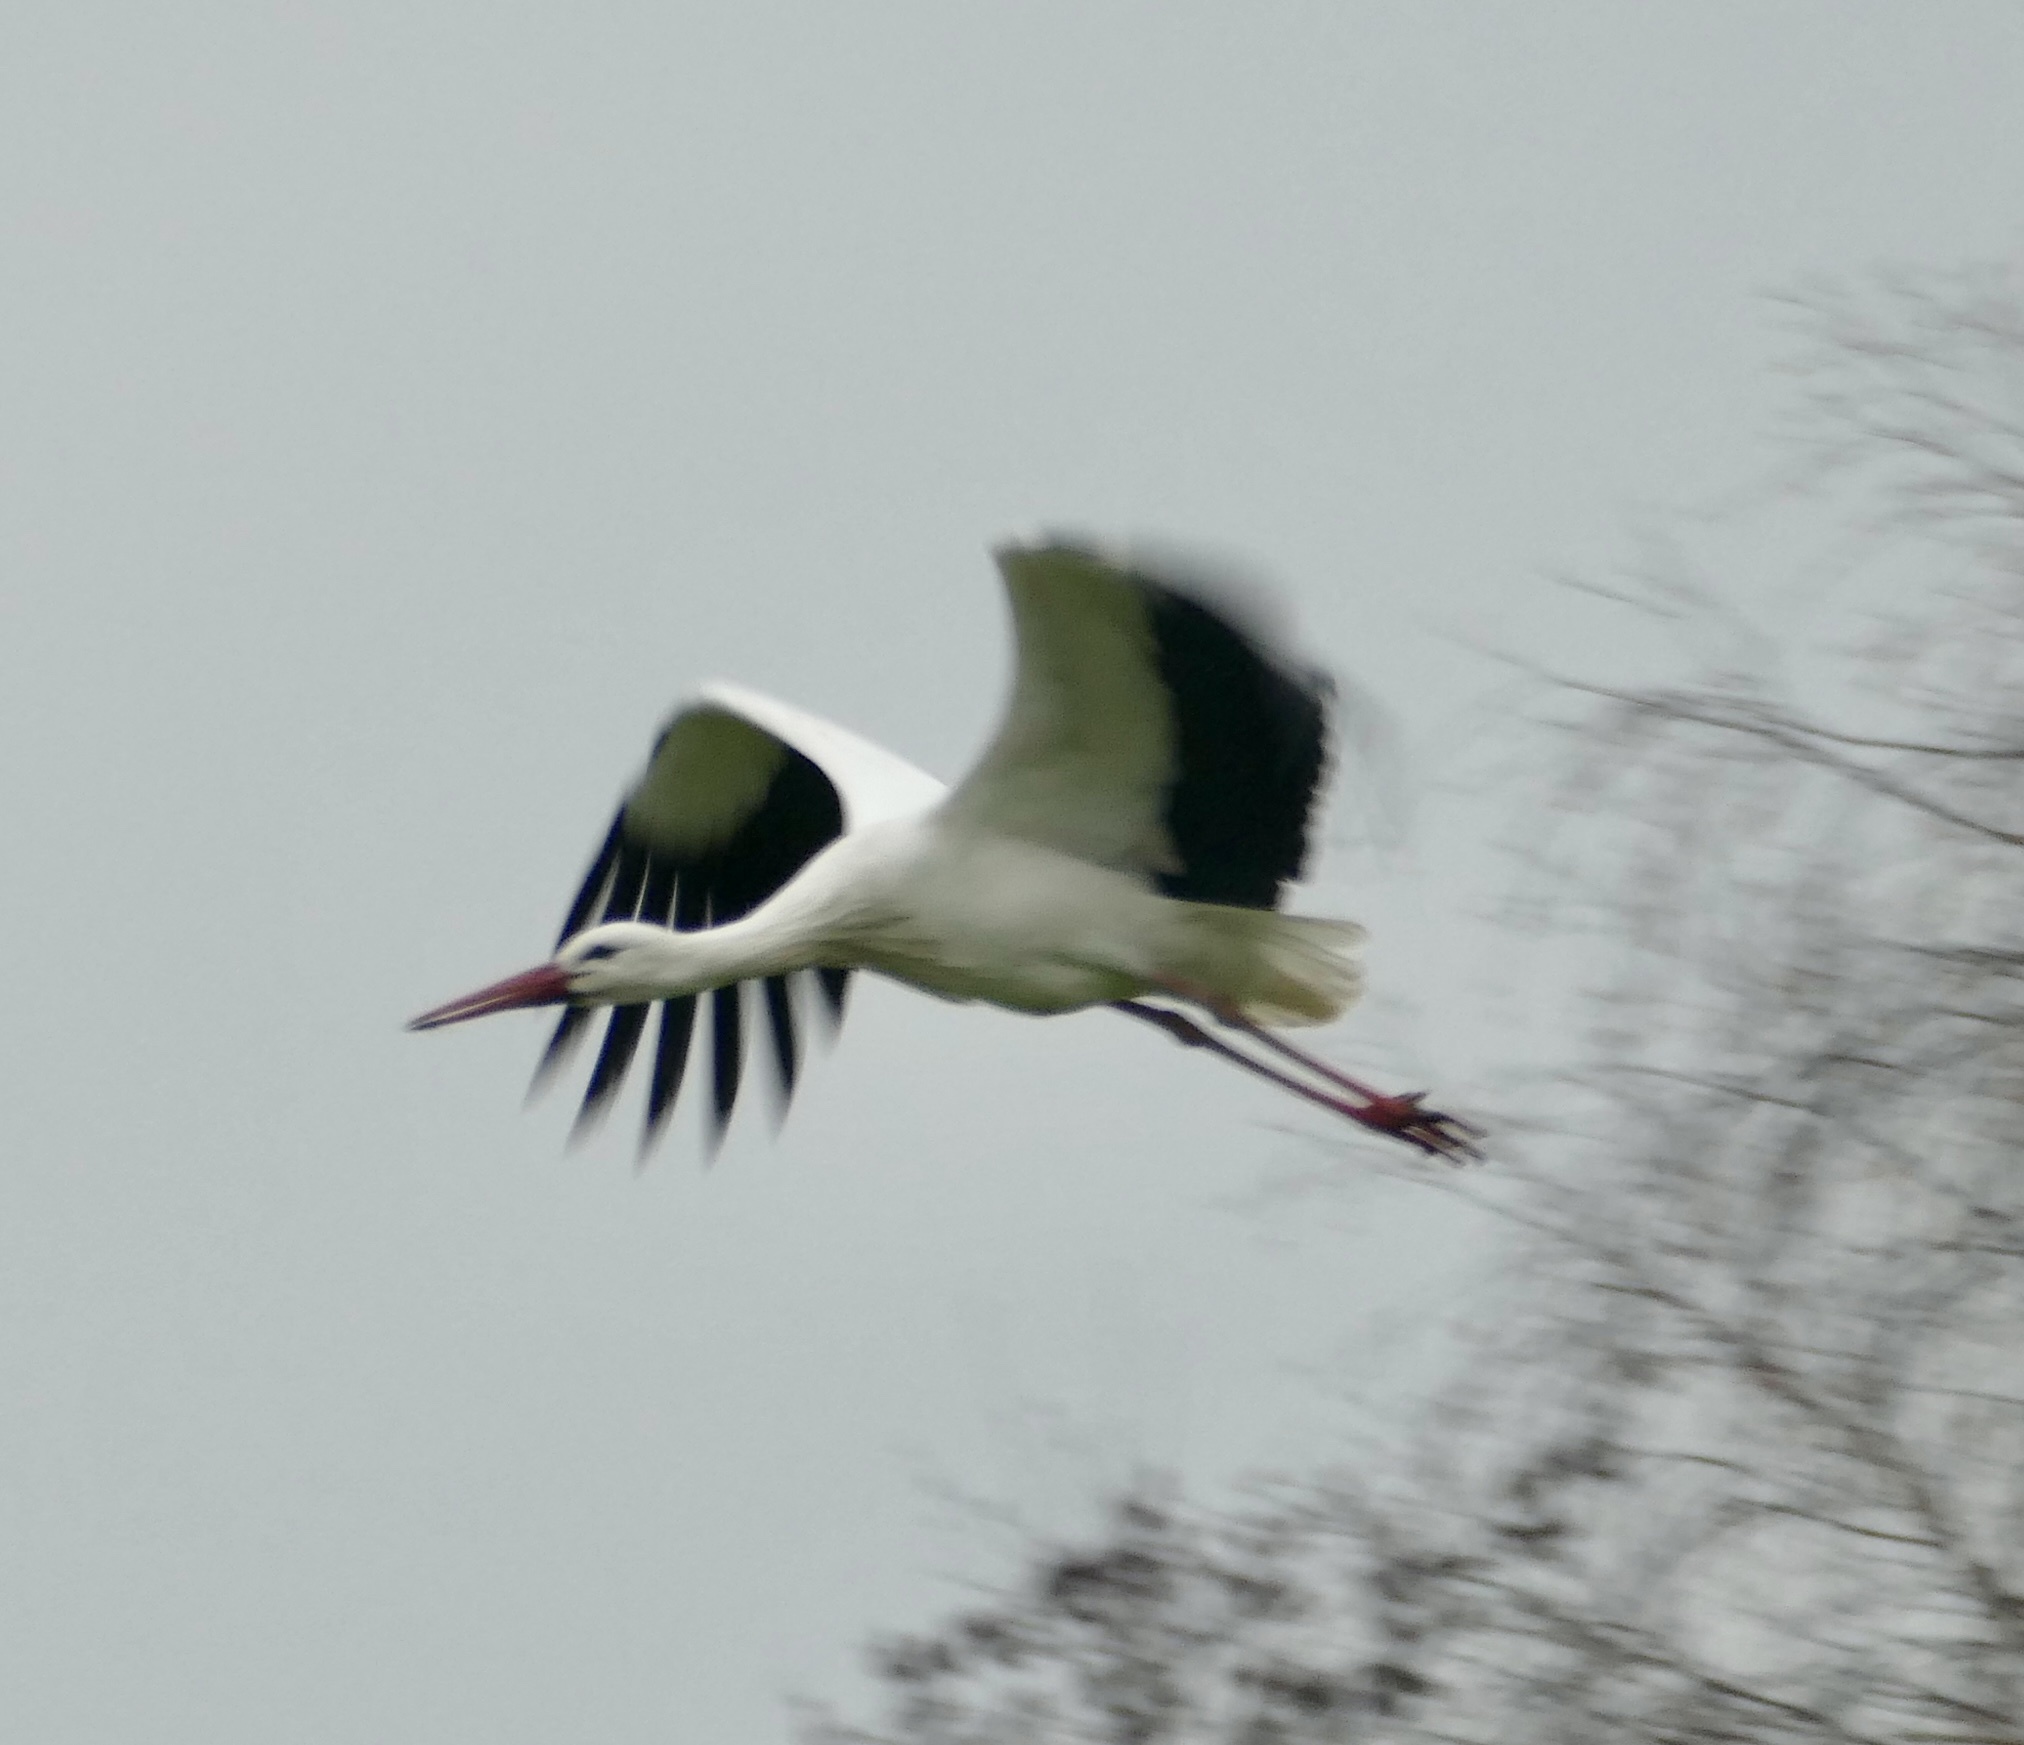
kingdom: Animalia
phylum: Chordata
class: Aves
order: Ciconiiformes
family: Ciconiidae
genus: Ciconia
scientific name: Ciconia ciconia
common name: White stork
